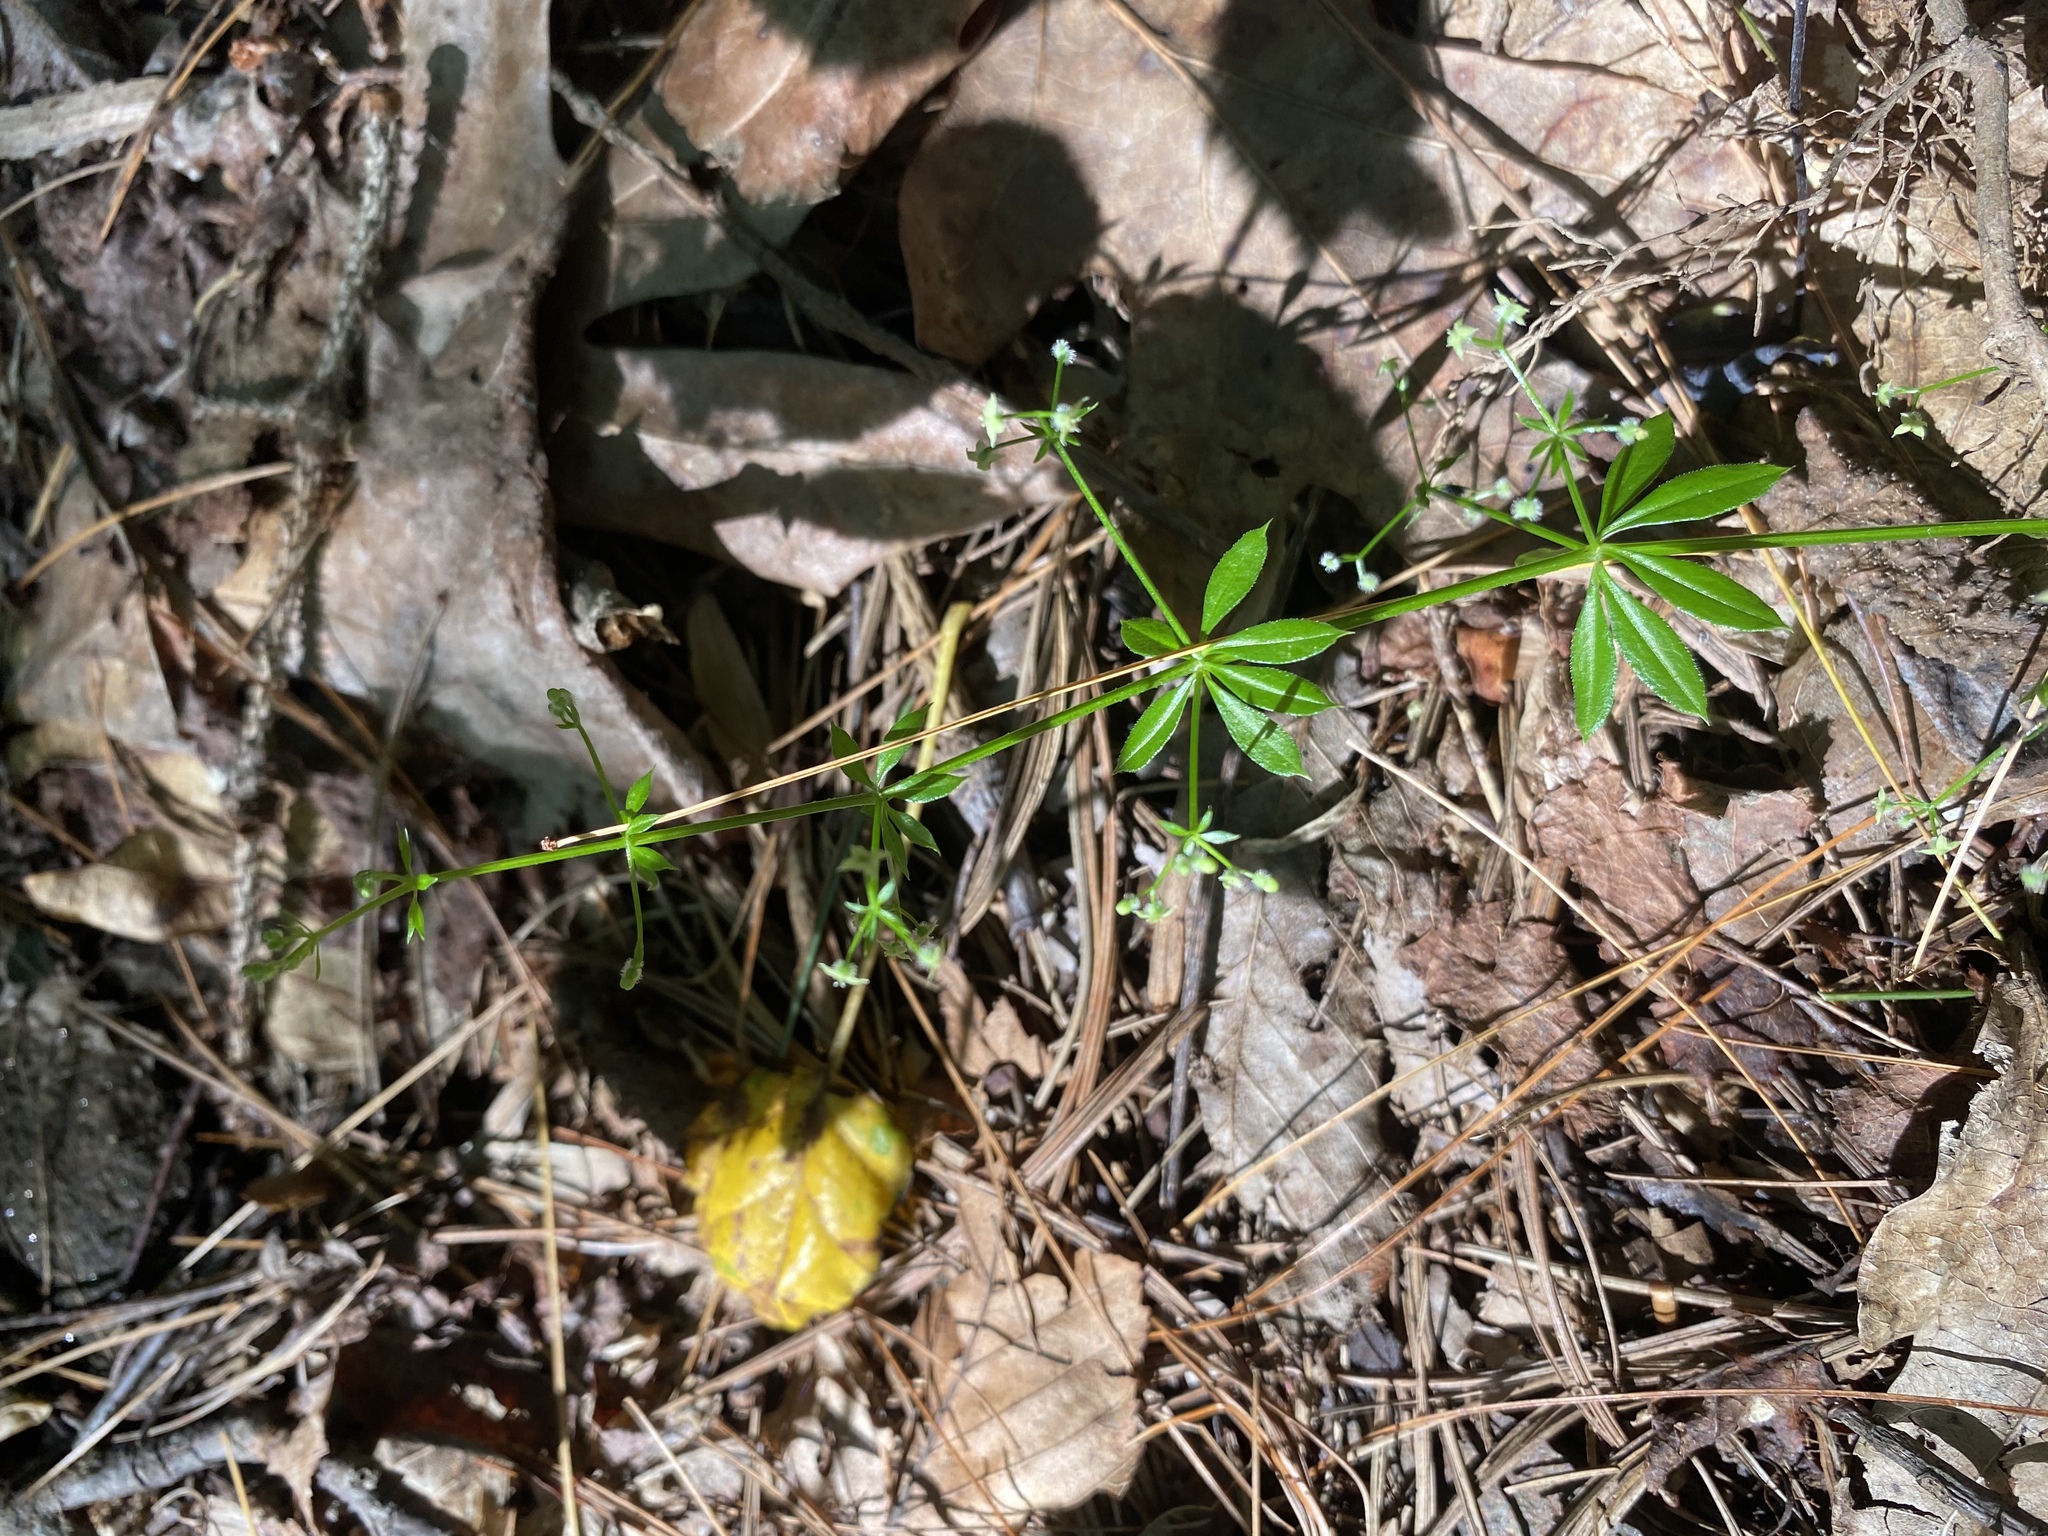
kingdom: Plantae
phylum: Tracheophyta
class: Magnoliopsida
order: Gentianales
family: Rubiaceae
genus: Galium
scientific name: Galium triflorum
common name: Fragrant bedstraw
